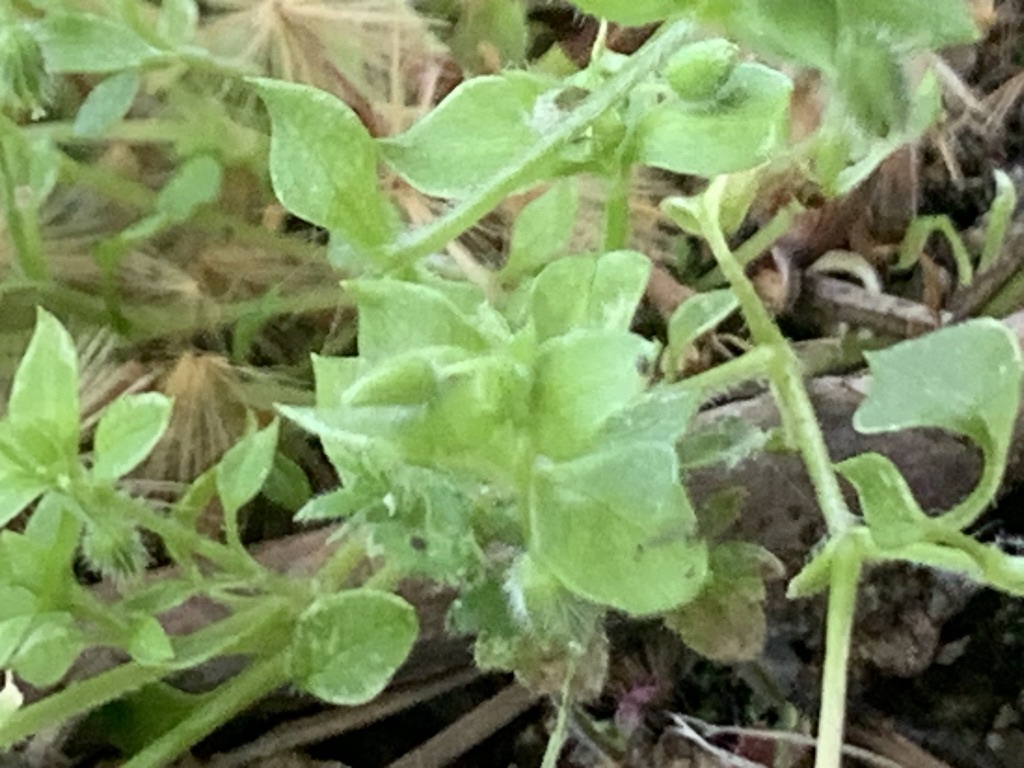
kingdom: Plantae
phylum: Tracheophyta
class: Magnoliopsida
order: Caryophyllales
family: Caryophyllaceae
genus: Stellaria
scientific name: Stellaria apetala
